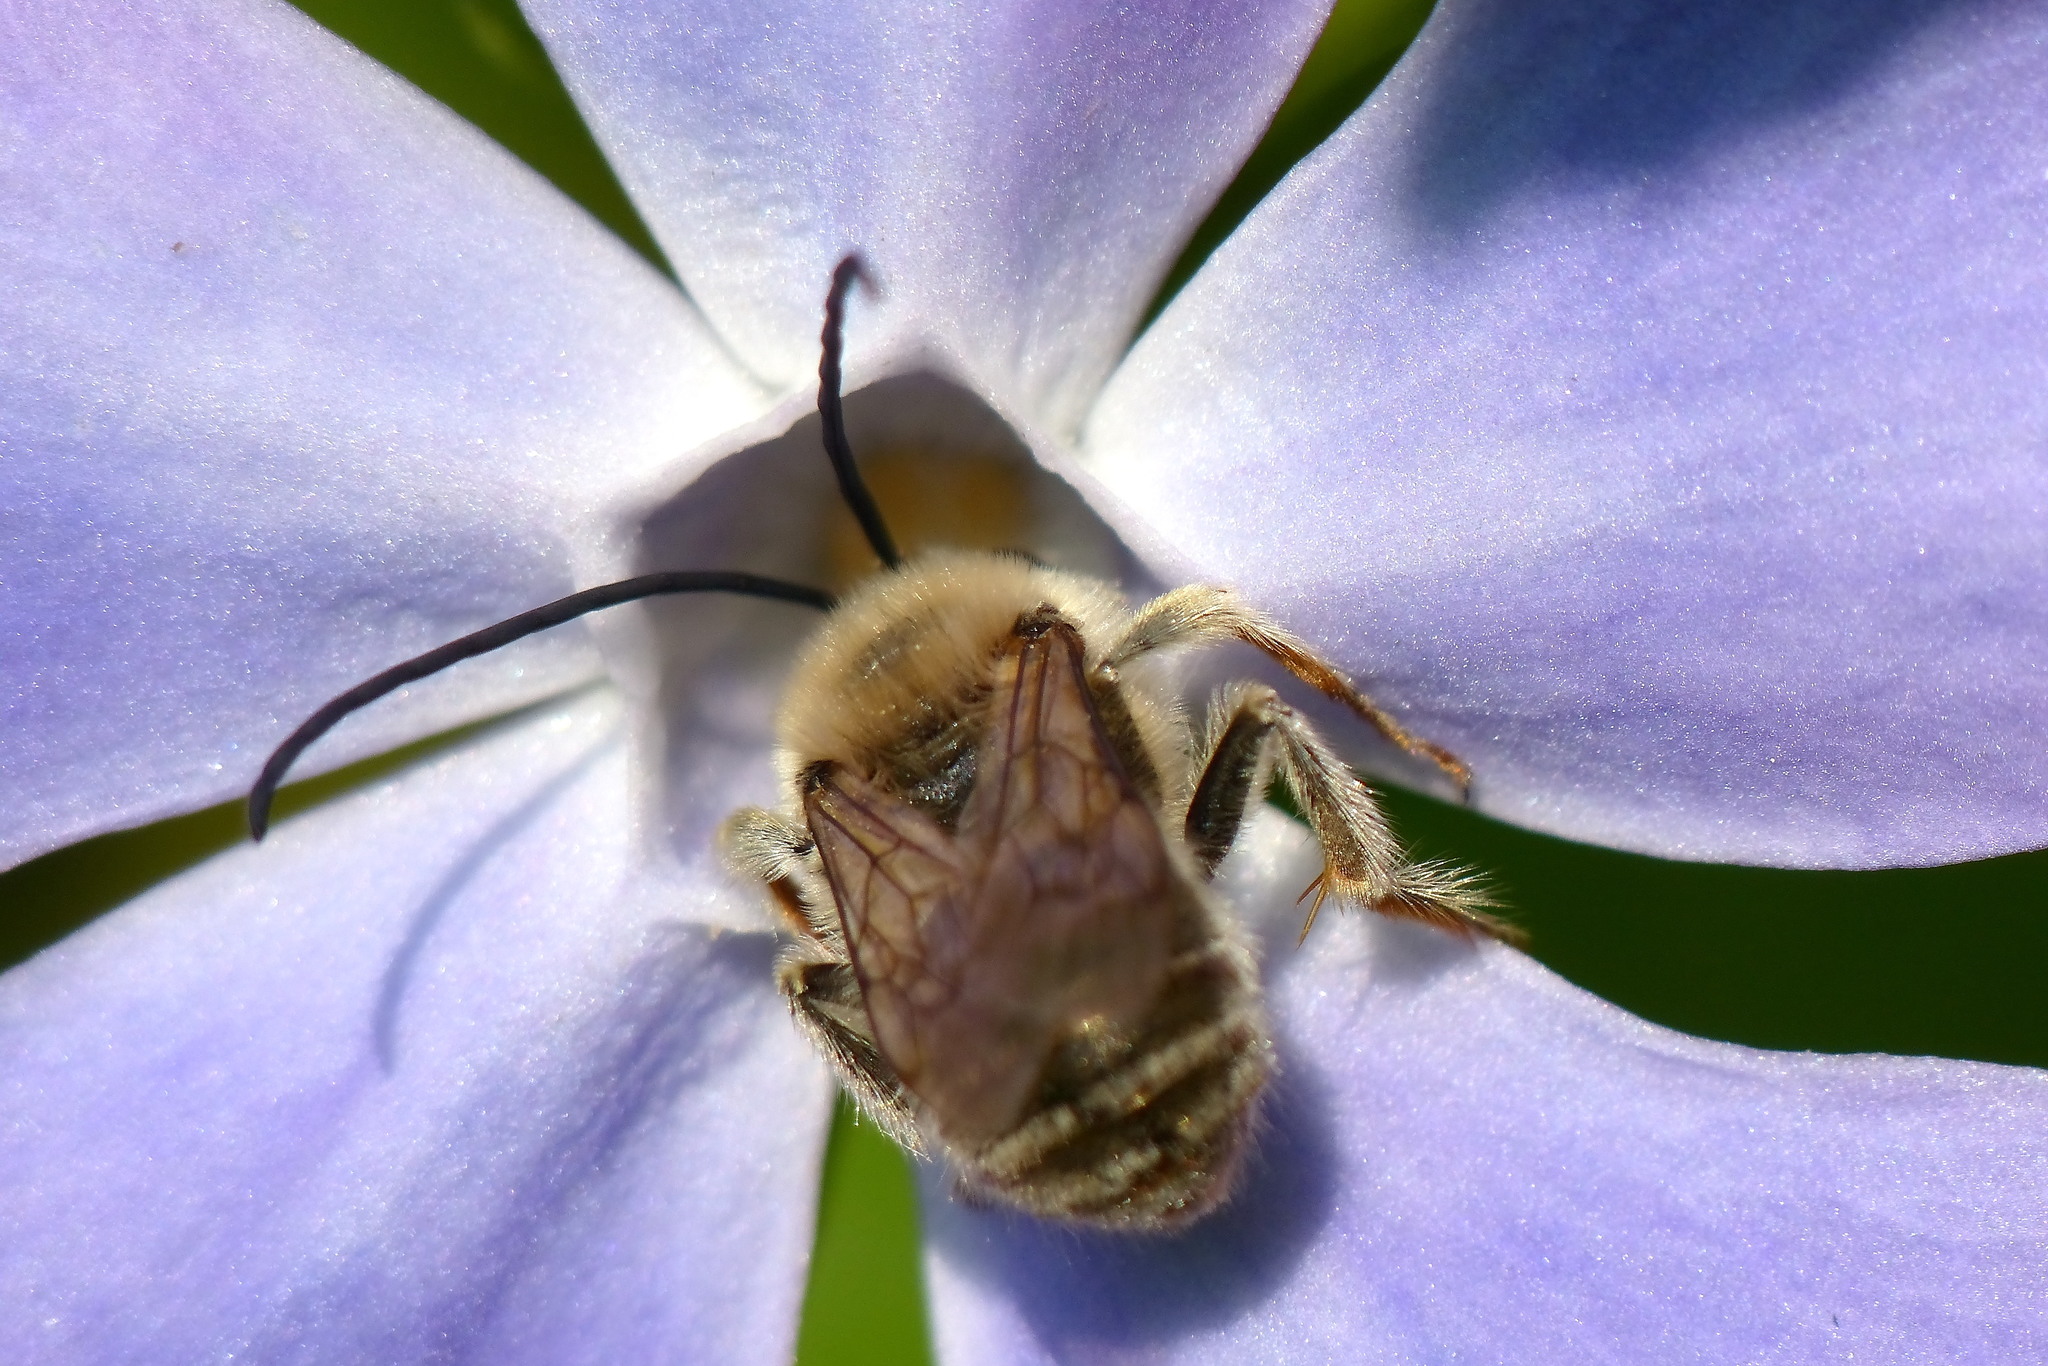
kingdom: Animalia
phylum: Arthropoda
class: Insecta
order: Hymenoptera
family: Apidae
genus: Eucera
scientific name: Eucera nipponensis
